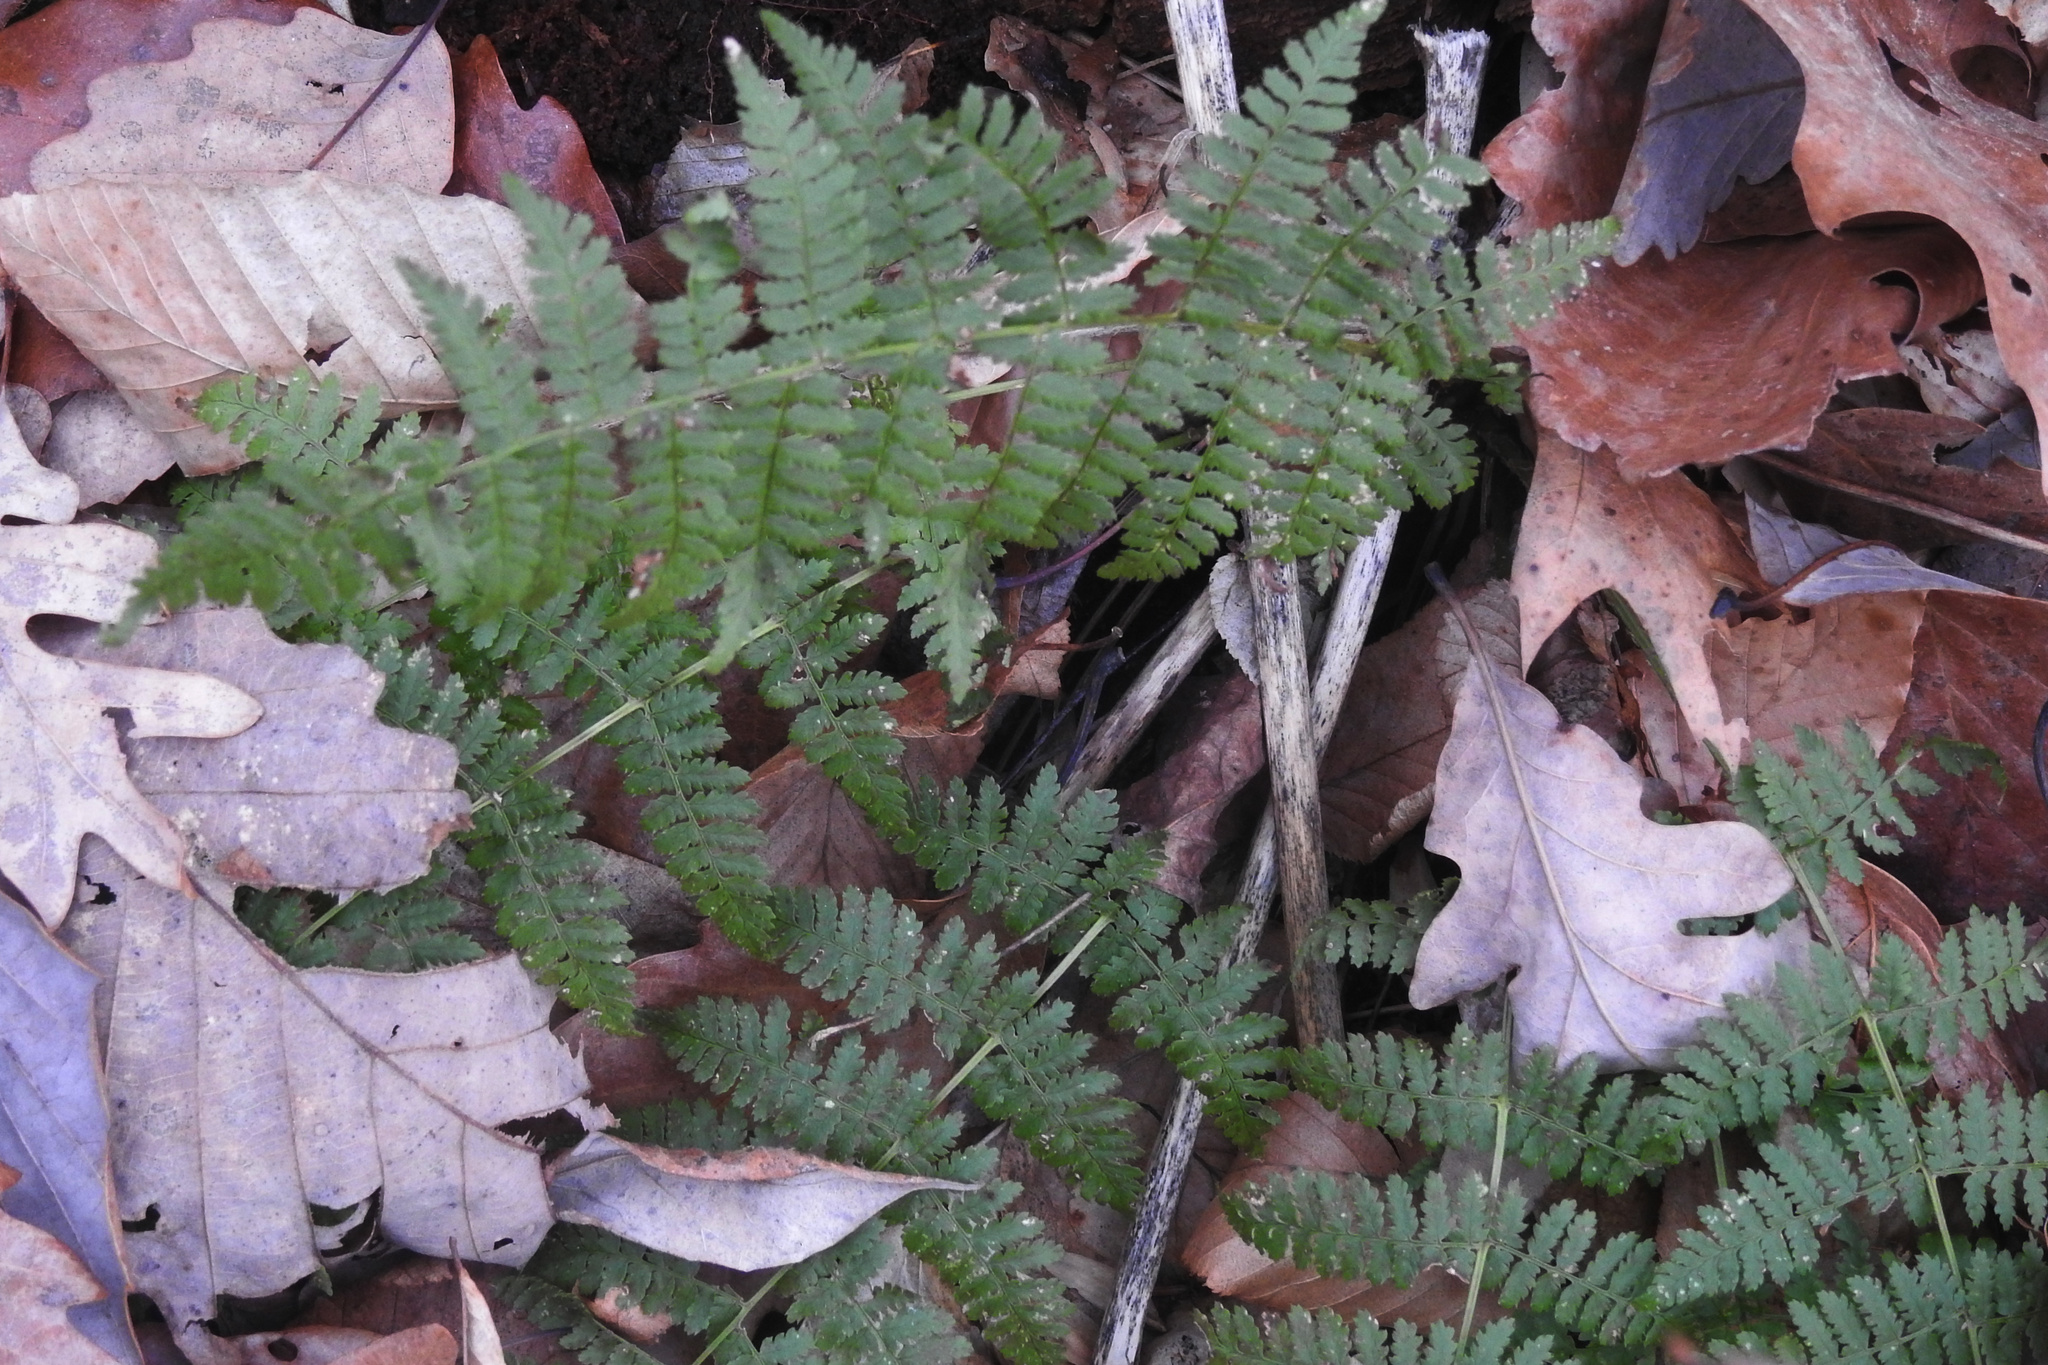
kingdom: Plantae
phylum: Tracheophyta
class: Polypodiopsida
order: Polypodiales
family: Dryopteridaceae
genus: Dryopteris
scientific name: Dryopteris intermedia
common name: Evergreen wood fern
